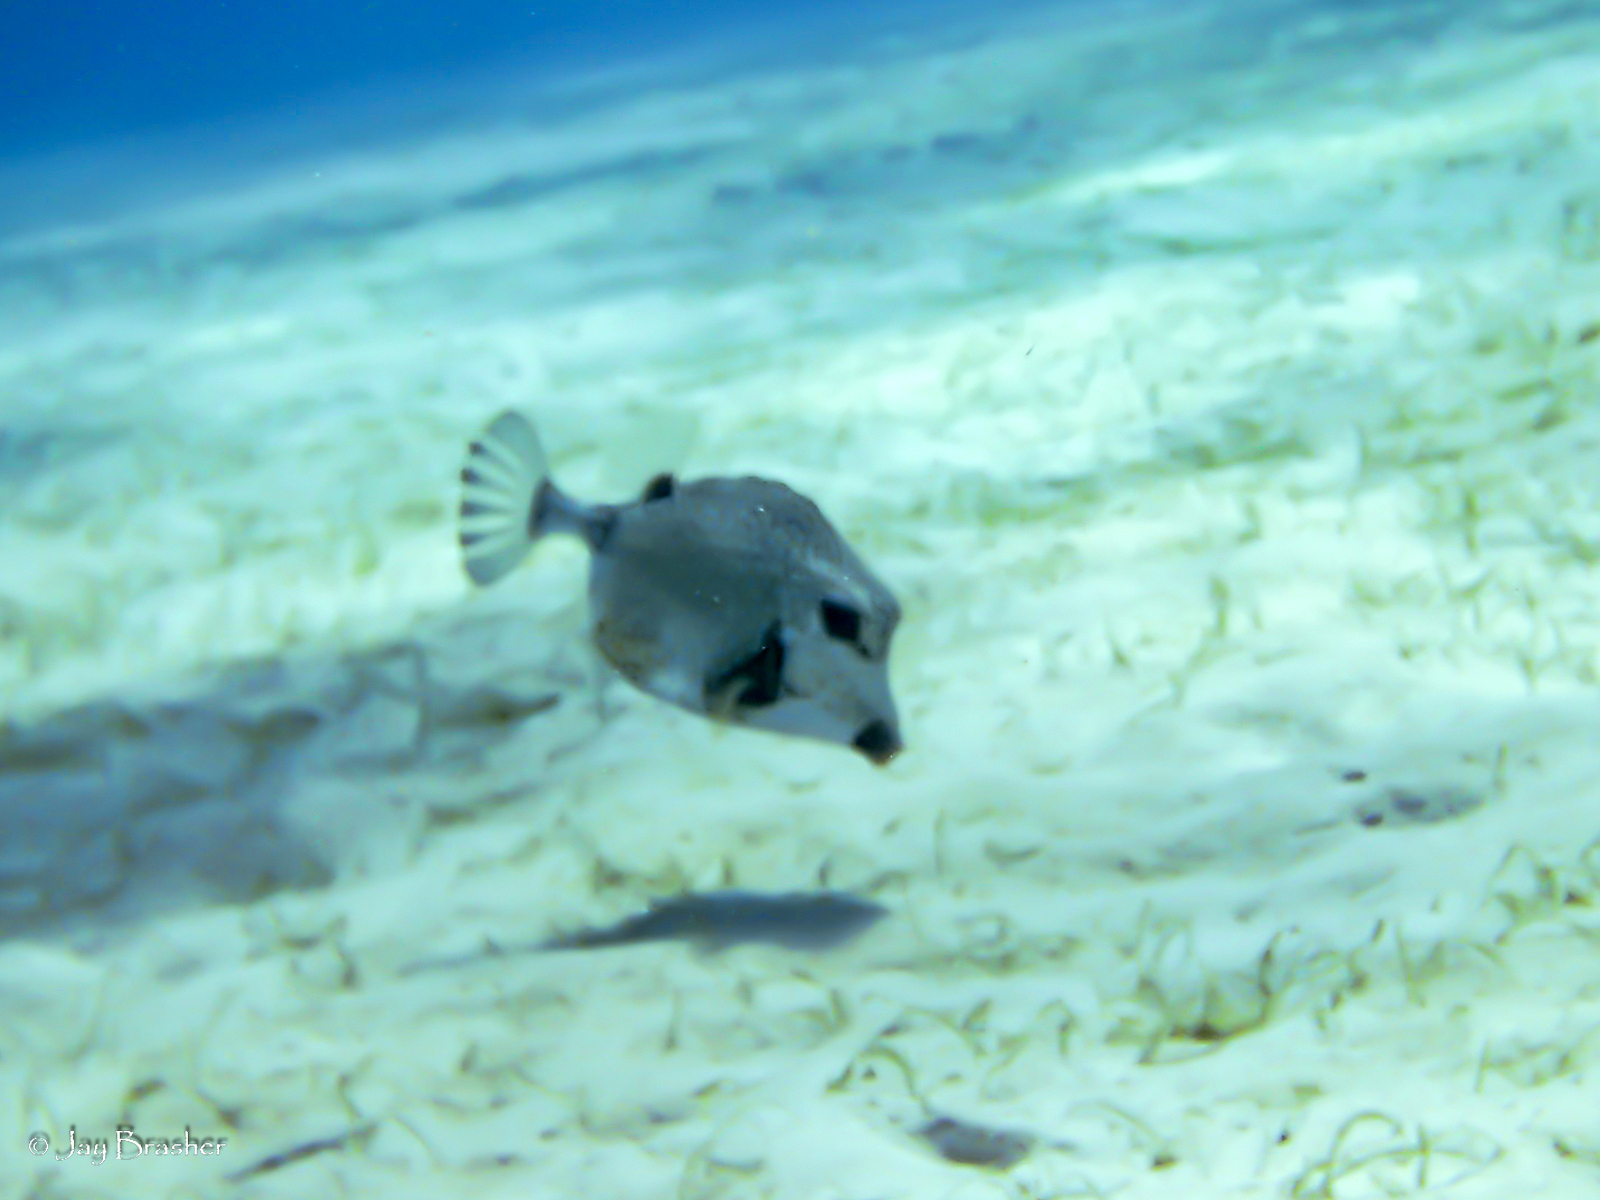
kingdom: Animalia
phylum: Chordata
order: Tetraodontiformes
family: Ostraciidae
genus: Lactophrys
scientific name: Lactophrys triqueter
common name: Smooth trunkfish
